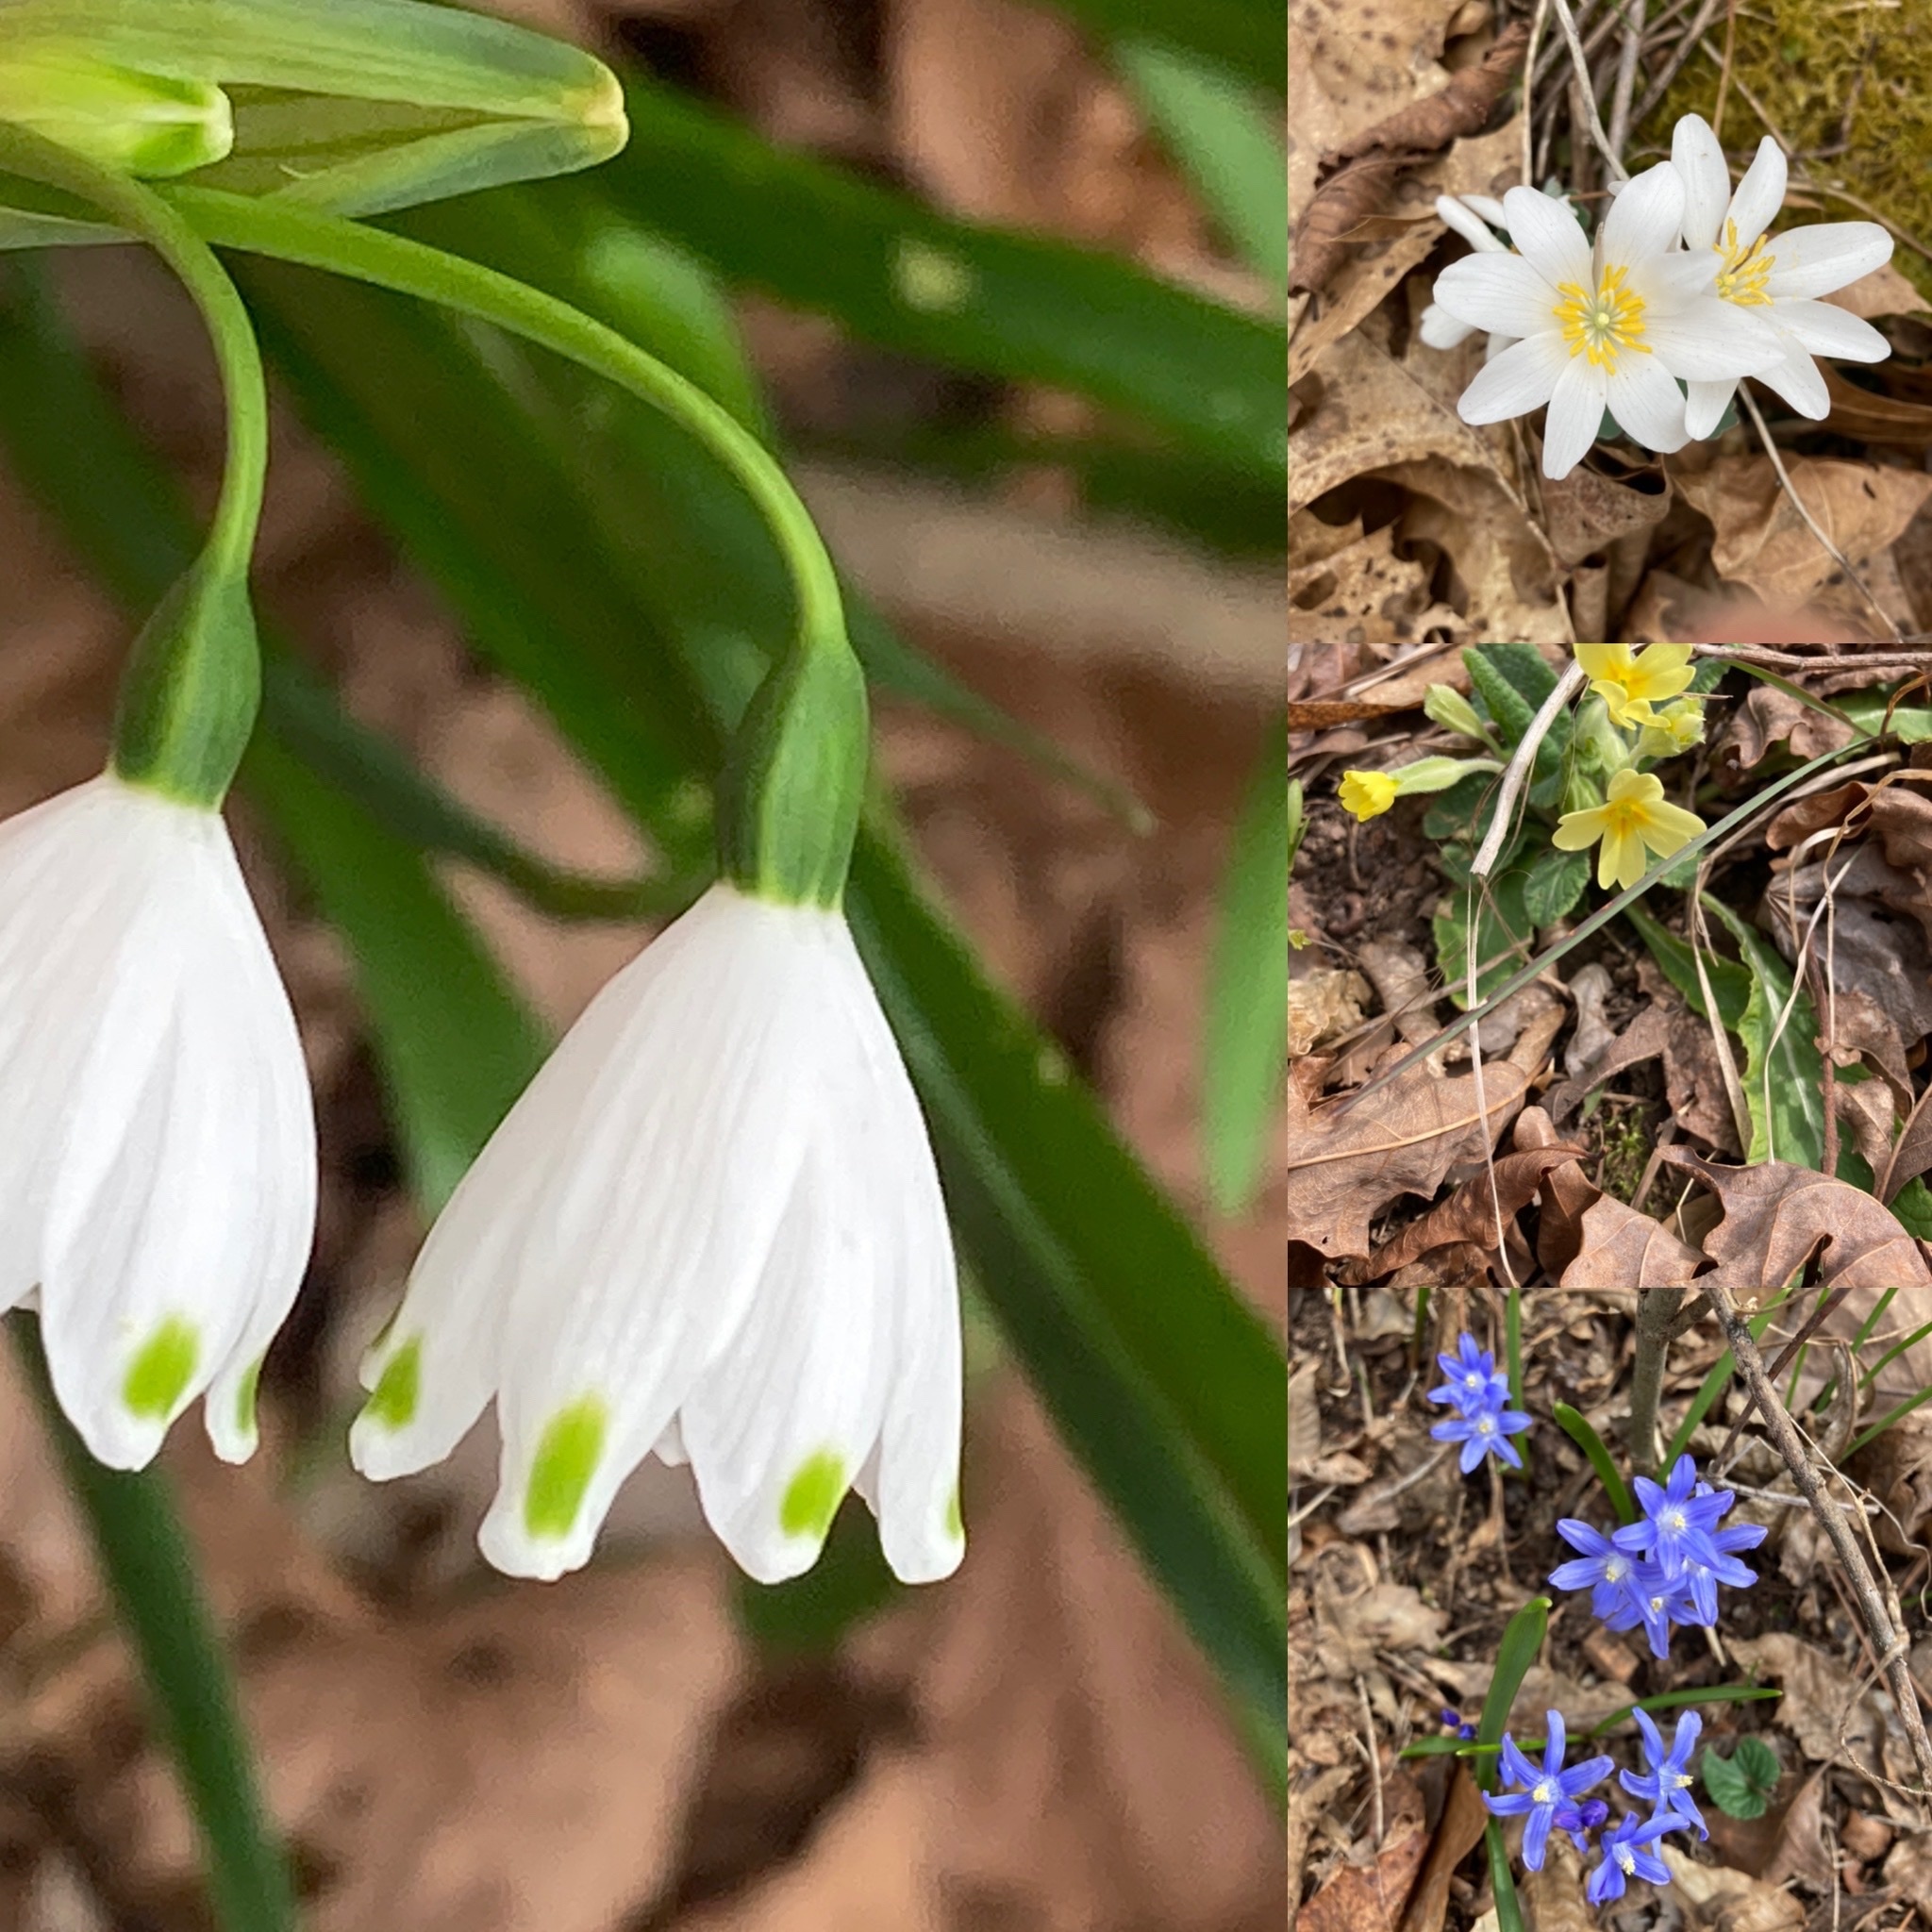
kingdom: Plantae
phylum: Tracheophyta
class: Liliopsida
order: Asparagales
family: Amaryllidaceae
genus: Leucojum
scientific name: Leucojum aestivum
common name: Summer snowflake
